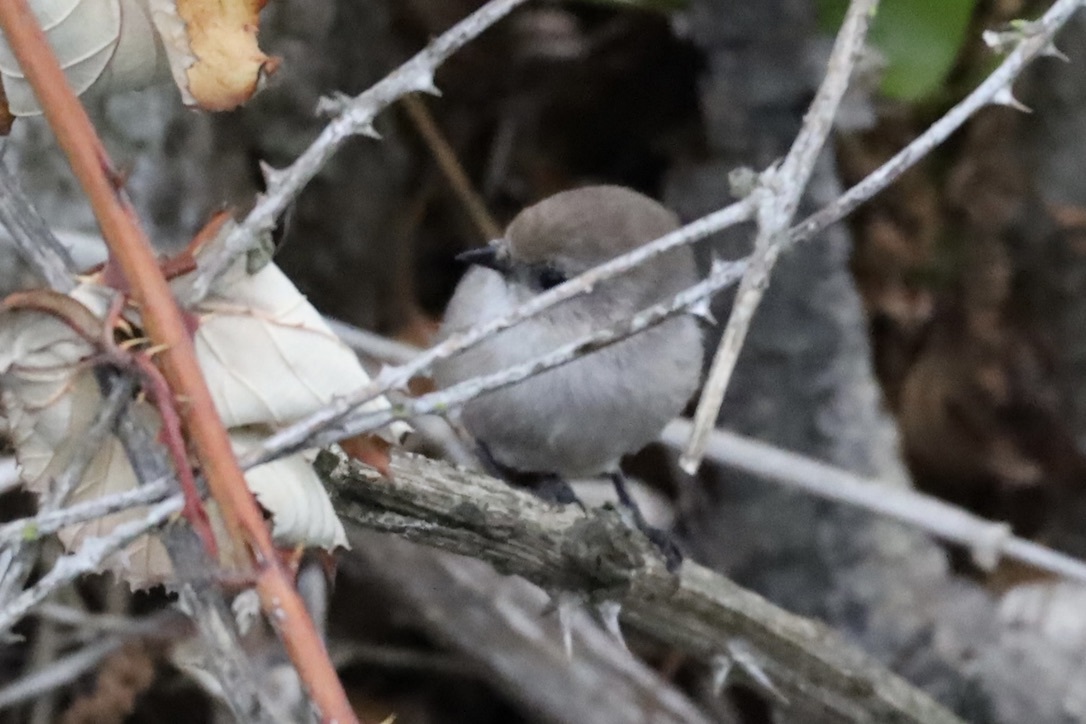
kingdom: Animalia
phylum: Chordata
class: Aves
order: Passeriformes
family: Aegithalidae
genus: Psaltriparus
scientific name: Psaltriparus minimus
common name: American bushtit
